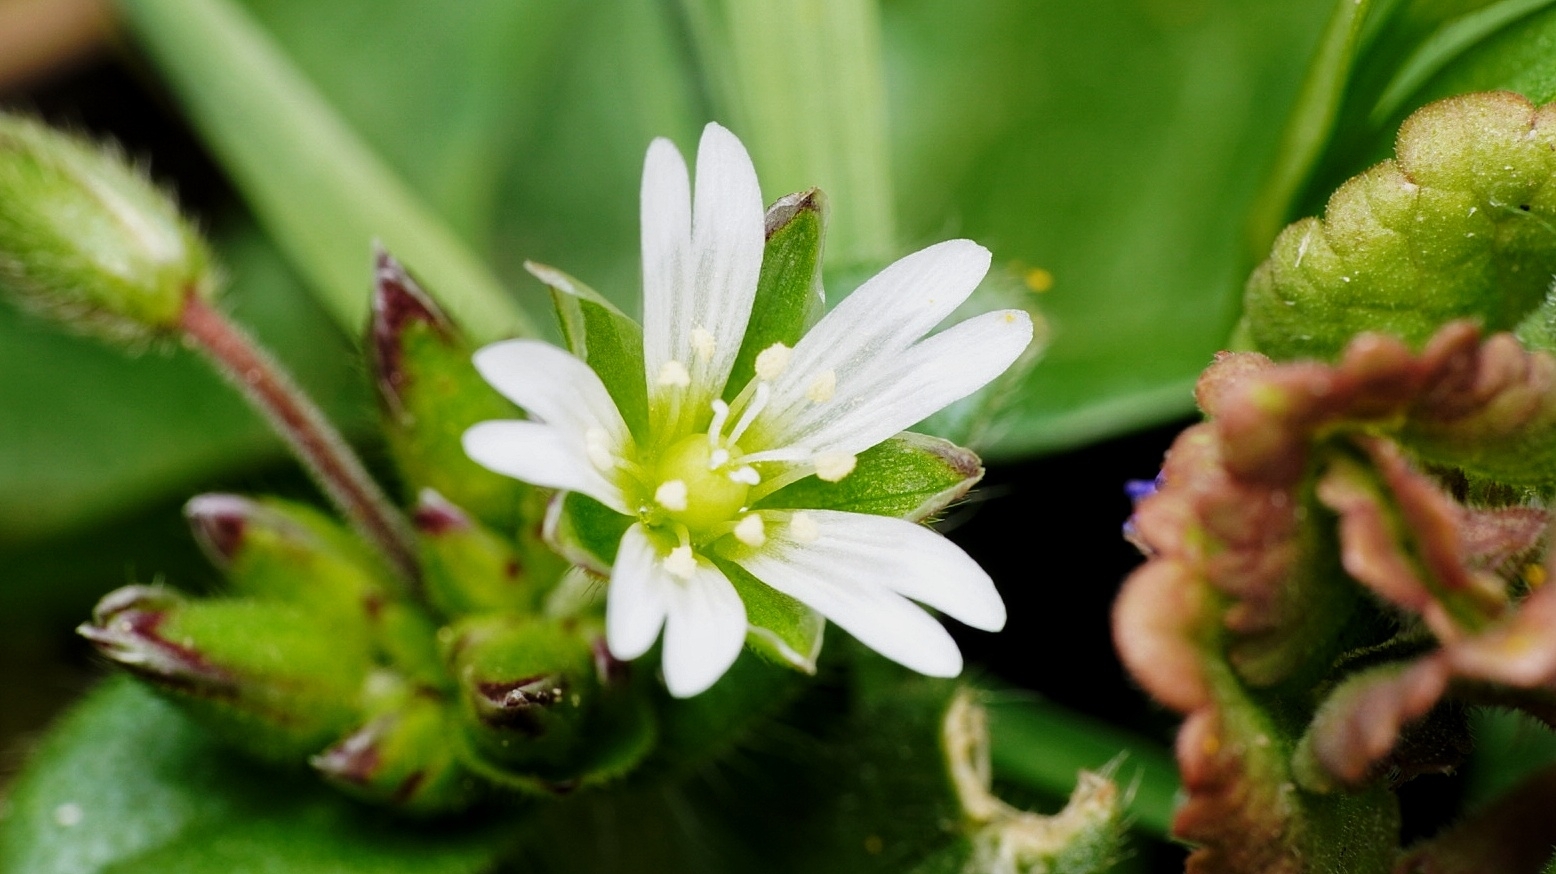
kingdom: Plantae
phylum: Tracheophyta
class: Magnoliopsida
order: Caryophyllales
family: Caryophyllaceae
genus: Cerastium
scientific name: Cerastium fontanum
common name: Common mouse-ear
